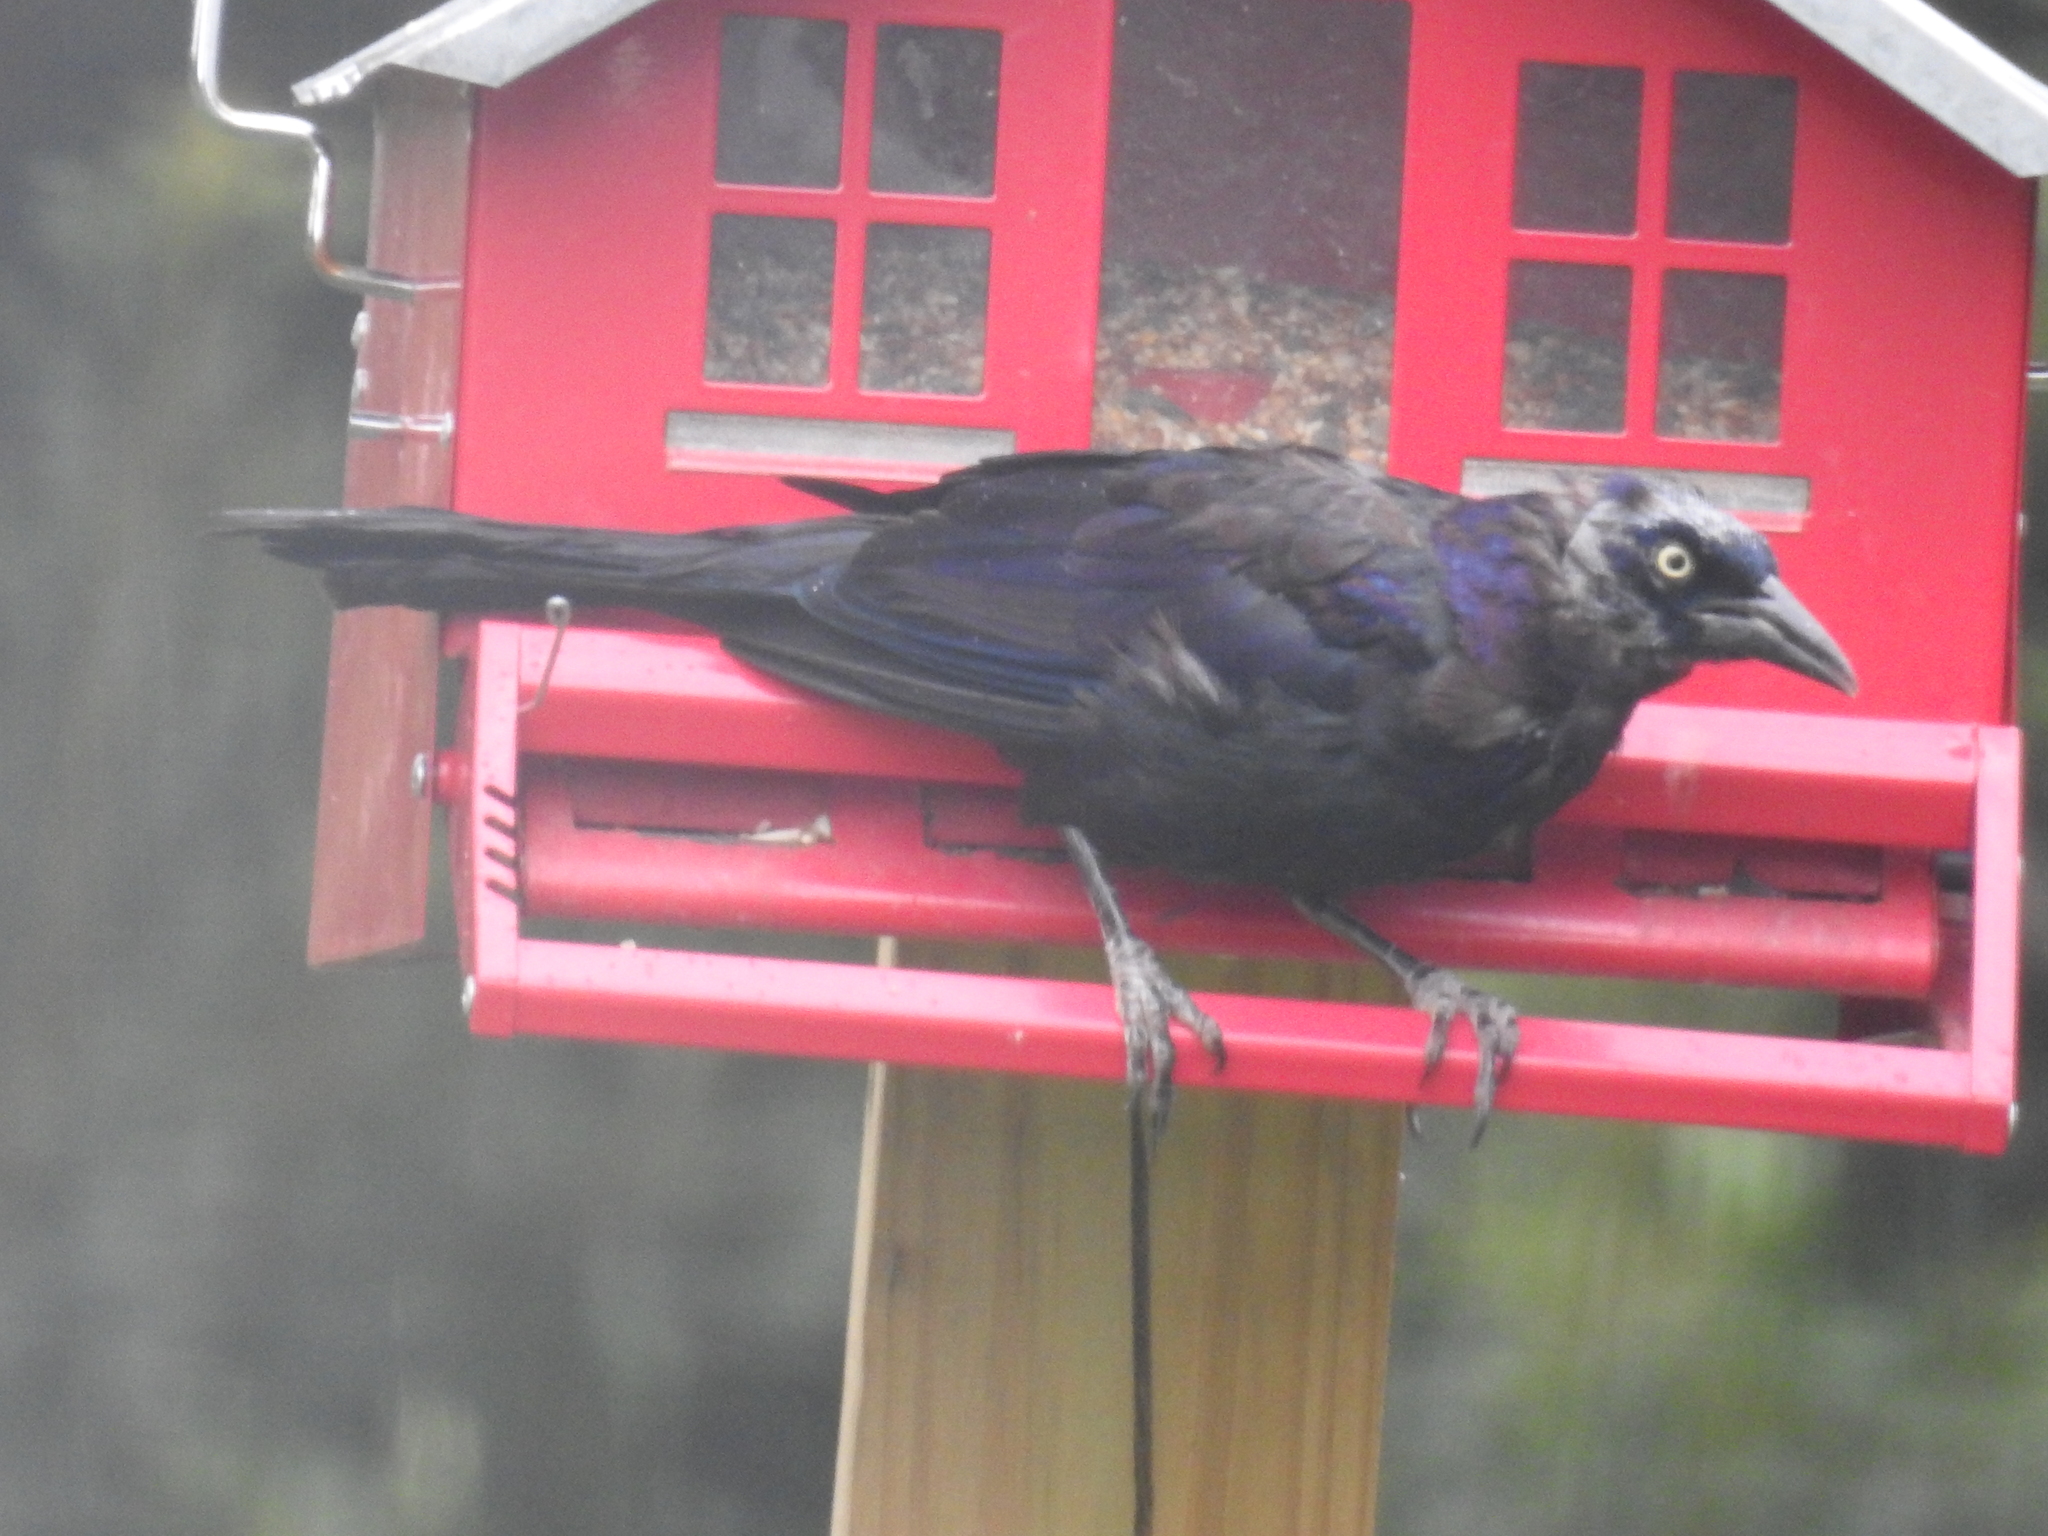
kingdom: Animalia
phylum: Chordata
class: Aves
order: Passeriformes
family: Icteridae
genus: Quiscalus
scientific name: Quiscalus quiscula
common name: Common grackle
